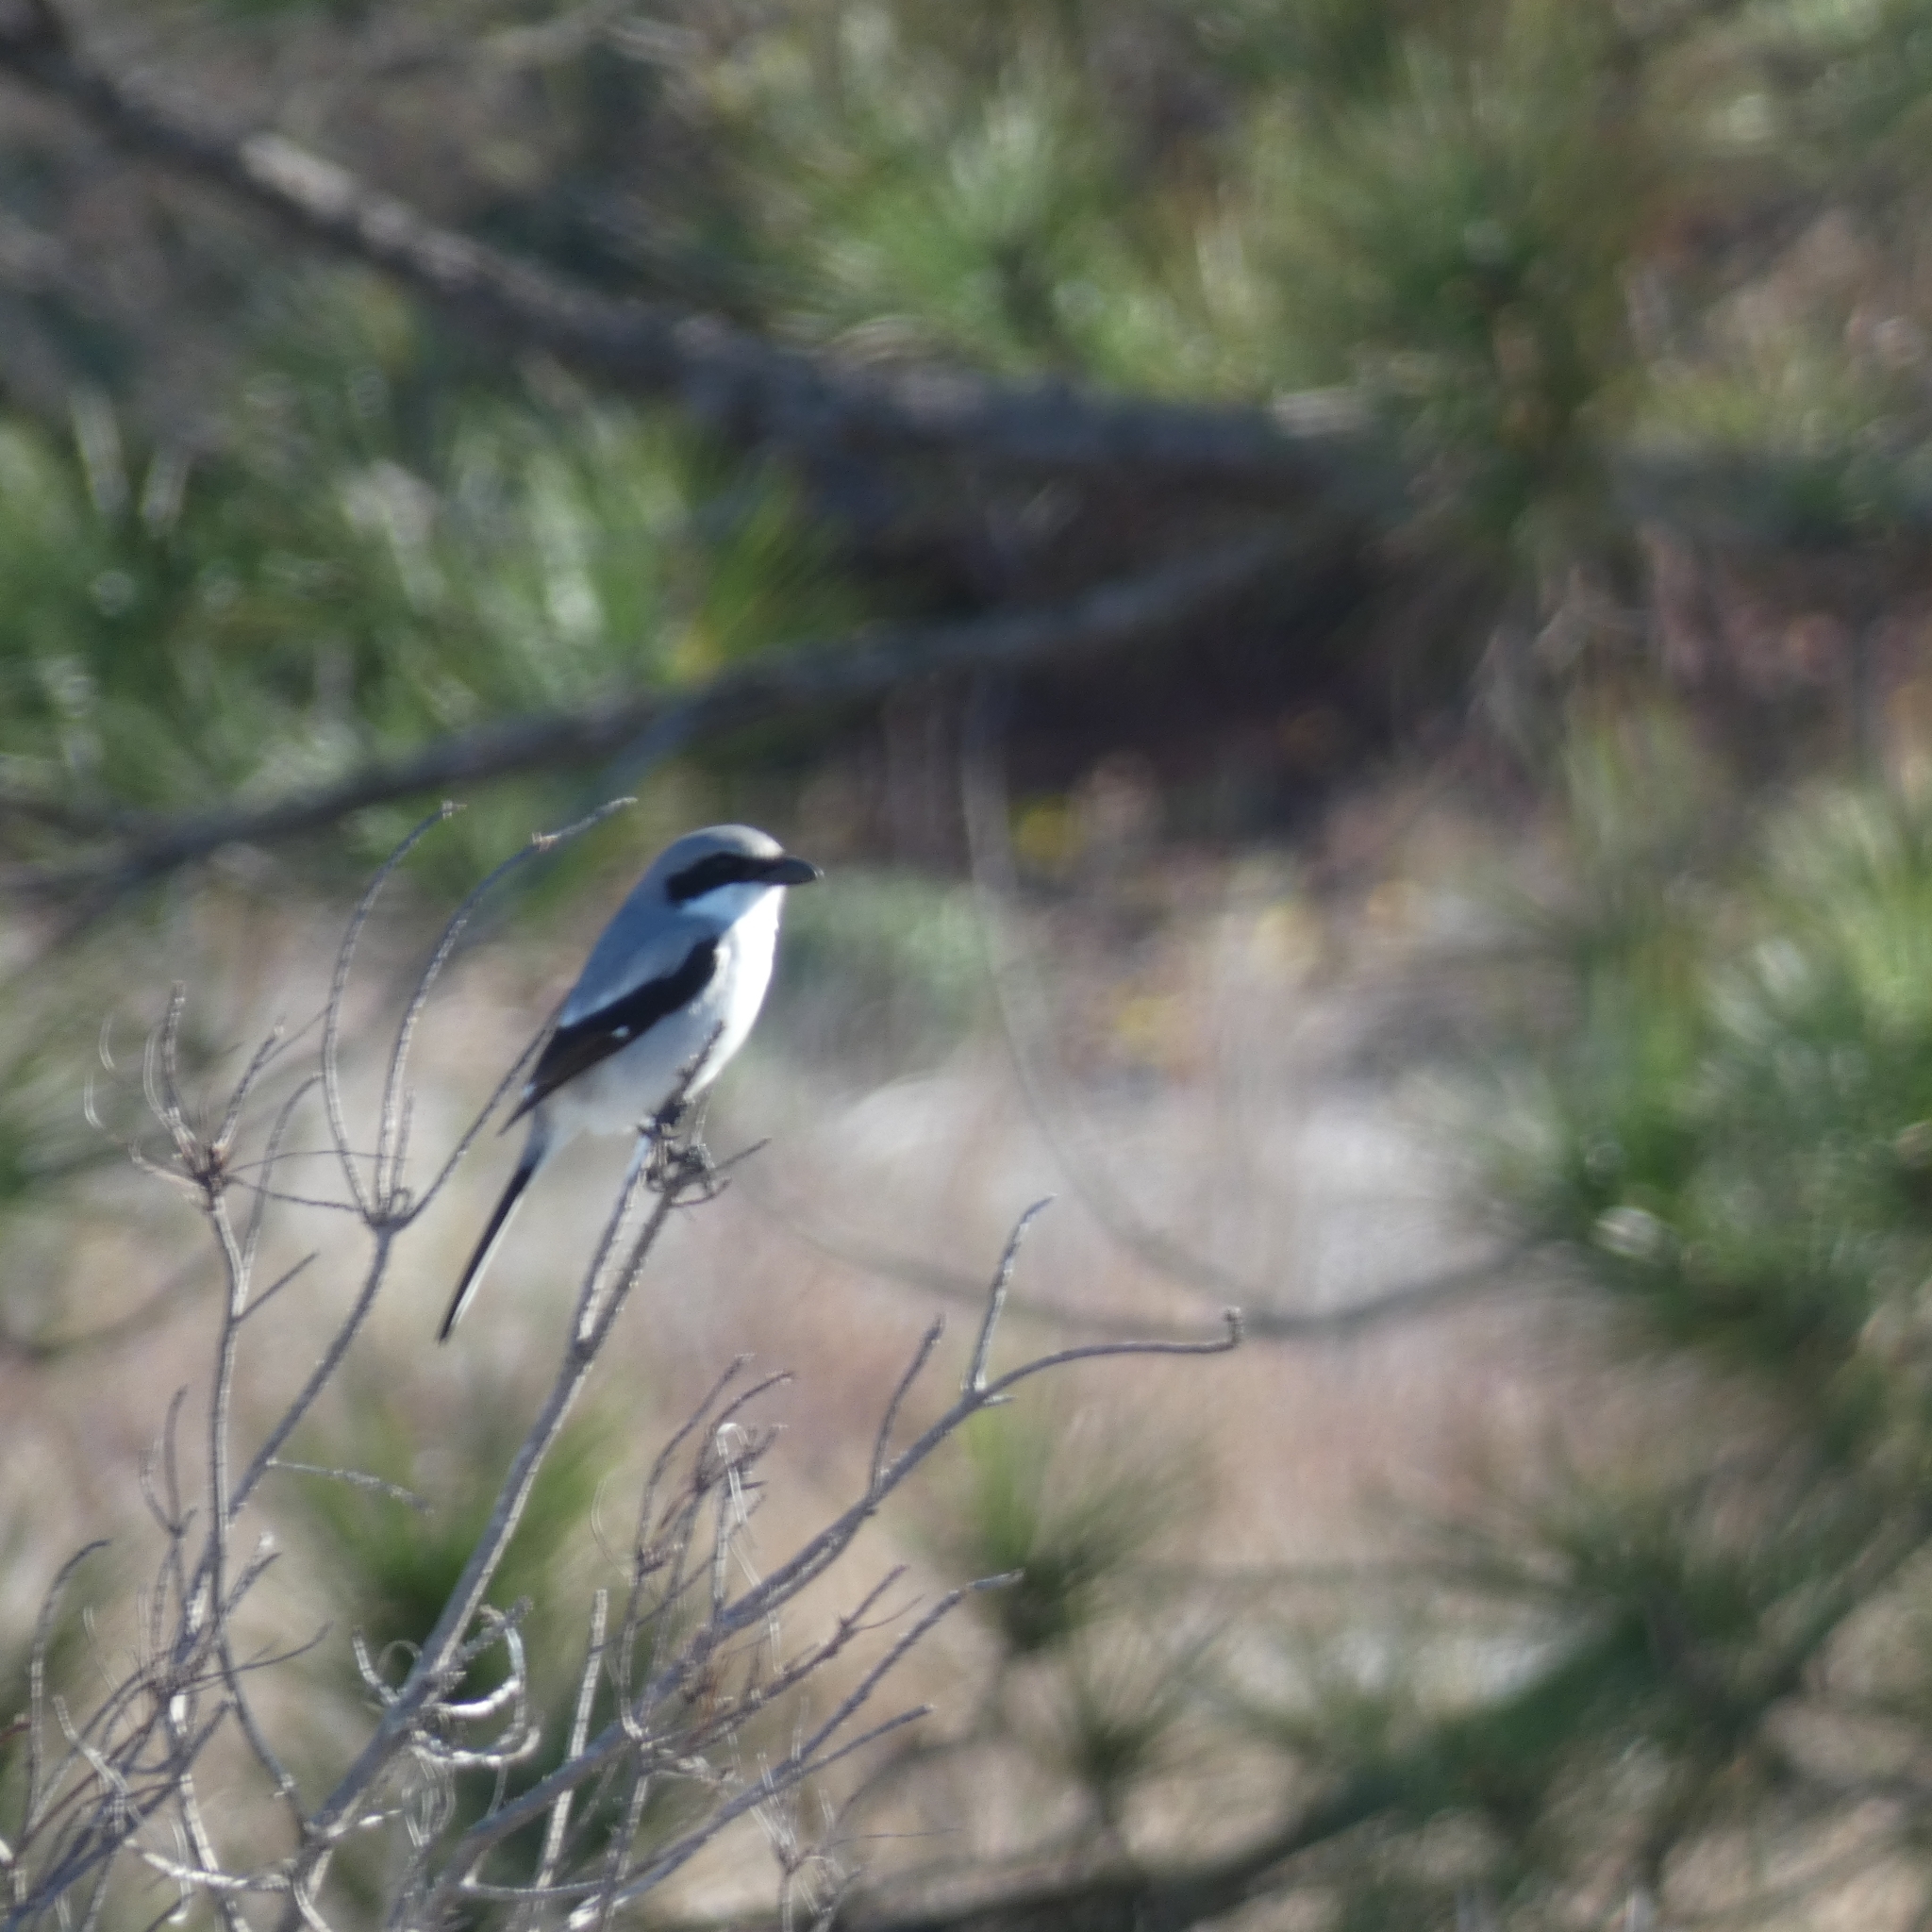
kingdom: Animalia
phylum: Chordata
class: Aves
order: Passeriformes
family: Laniidae
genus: Lanius
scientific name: Lanius ludovicianus
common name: Loggerhead shrike
